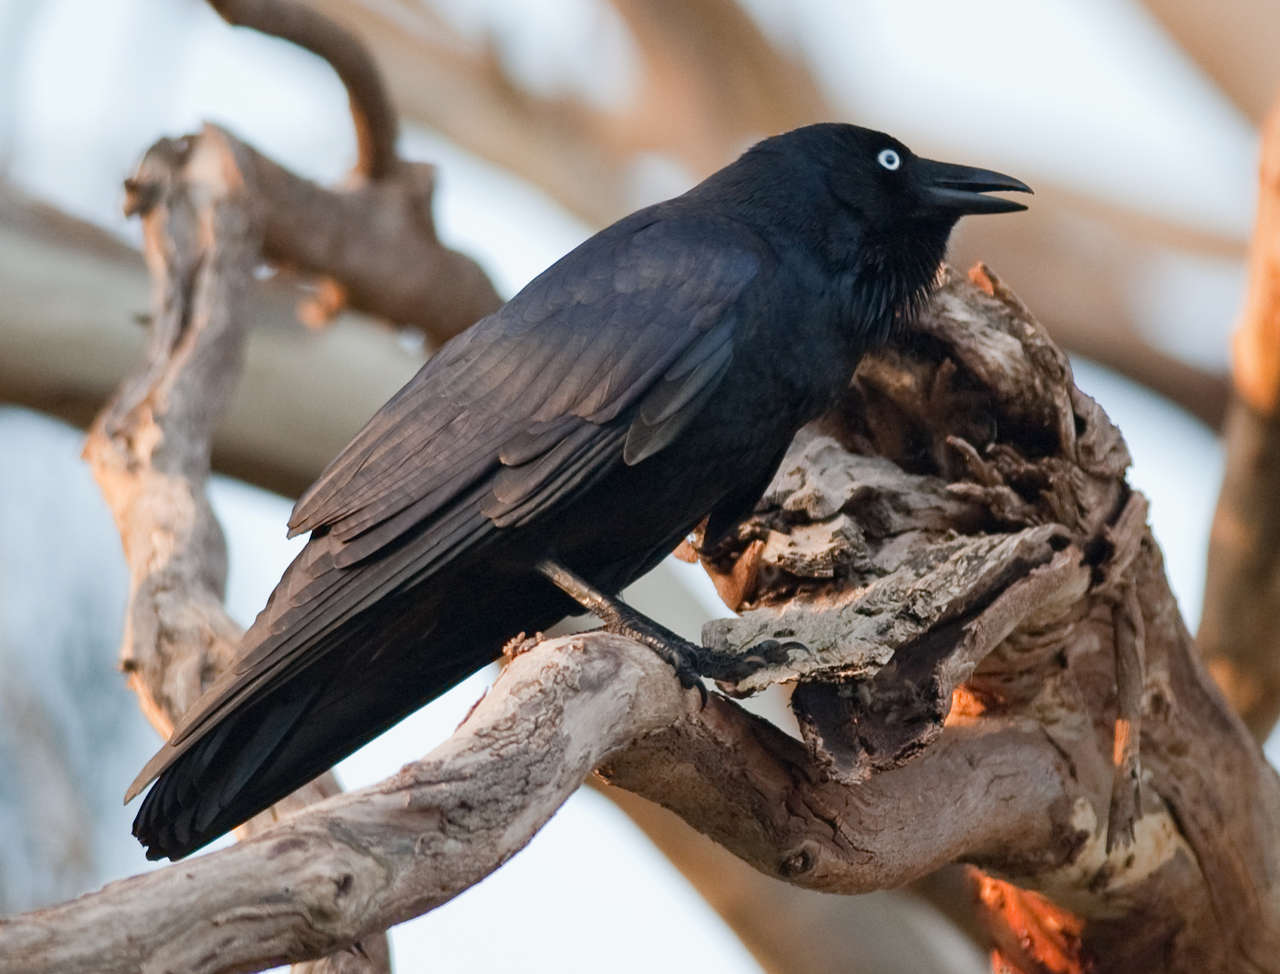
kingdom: Animalia
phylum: Chordata
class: Aves
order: Passeriformes
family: Corvidae
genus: Corvus
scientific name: Corvus mellori
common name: Little raven
